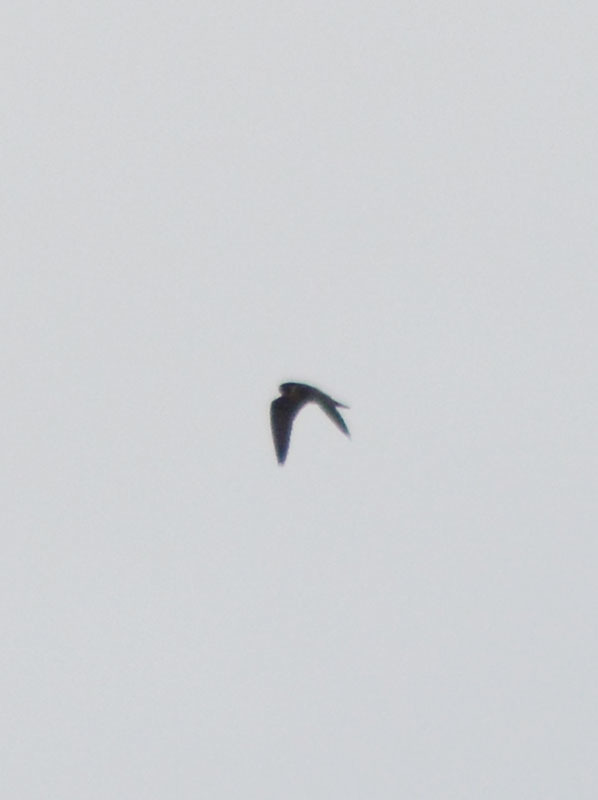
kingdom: Animalia
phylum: Chordata
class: Aves
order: Falconiformes
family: Falconidae
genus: Falco
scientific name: Falco peregrinus
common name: Peregrine falcon
